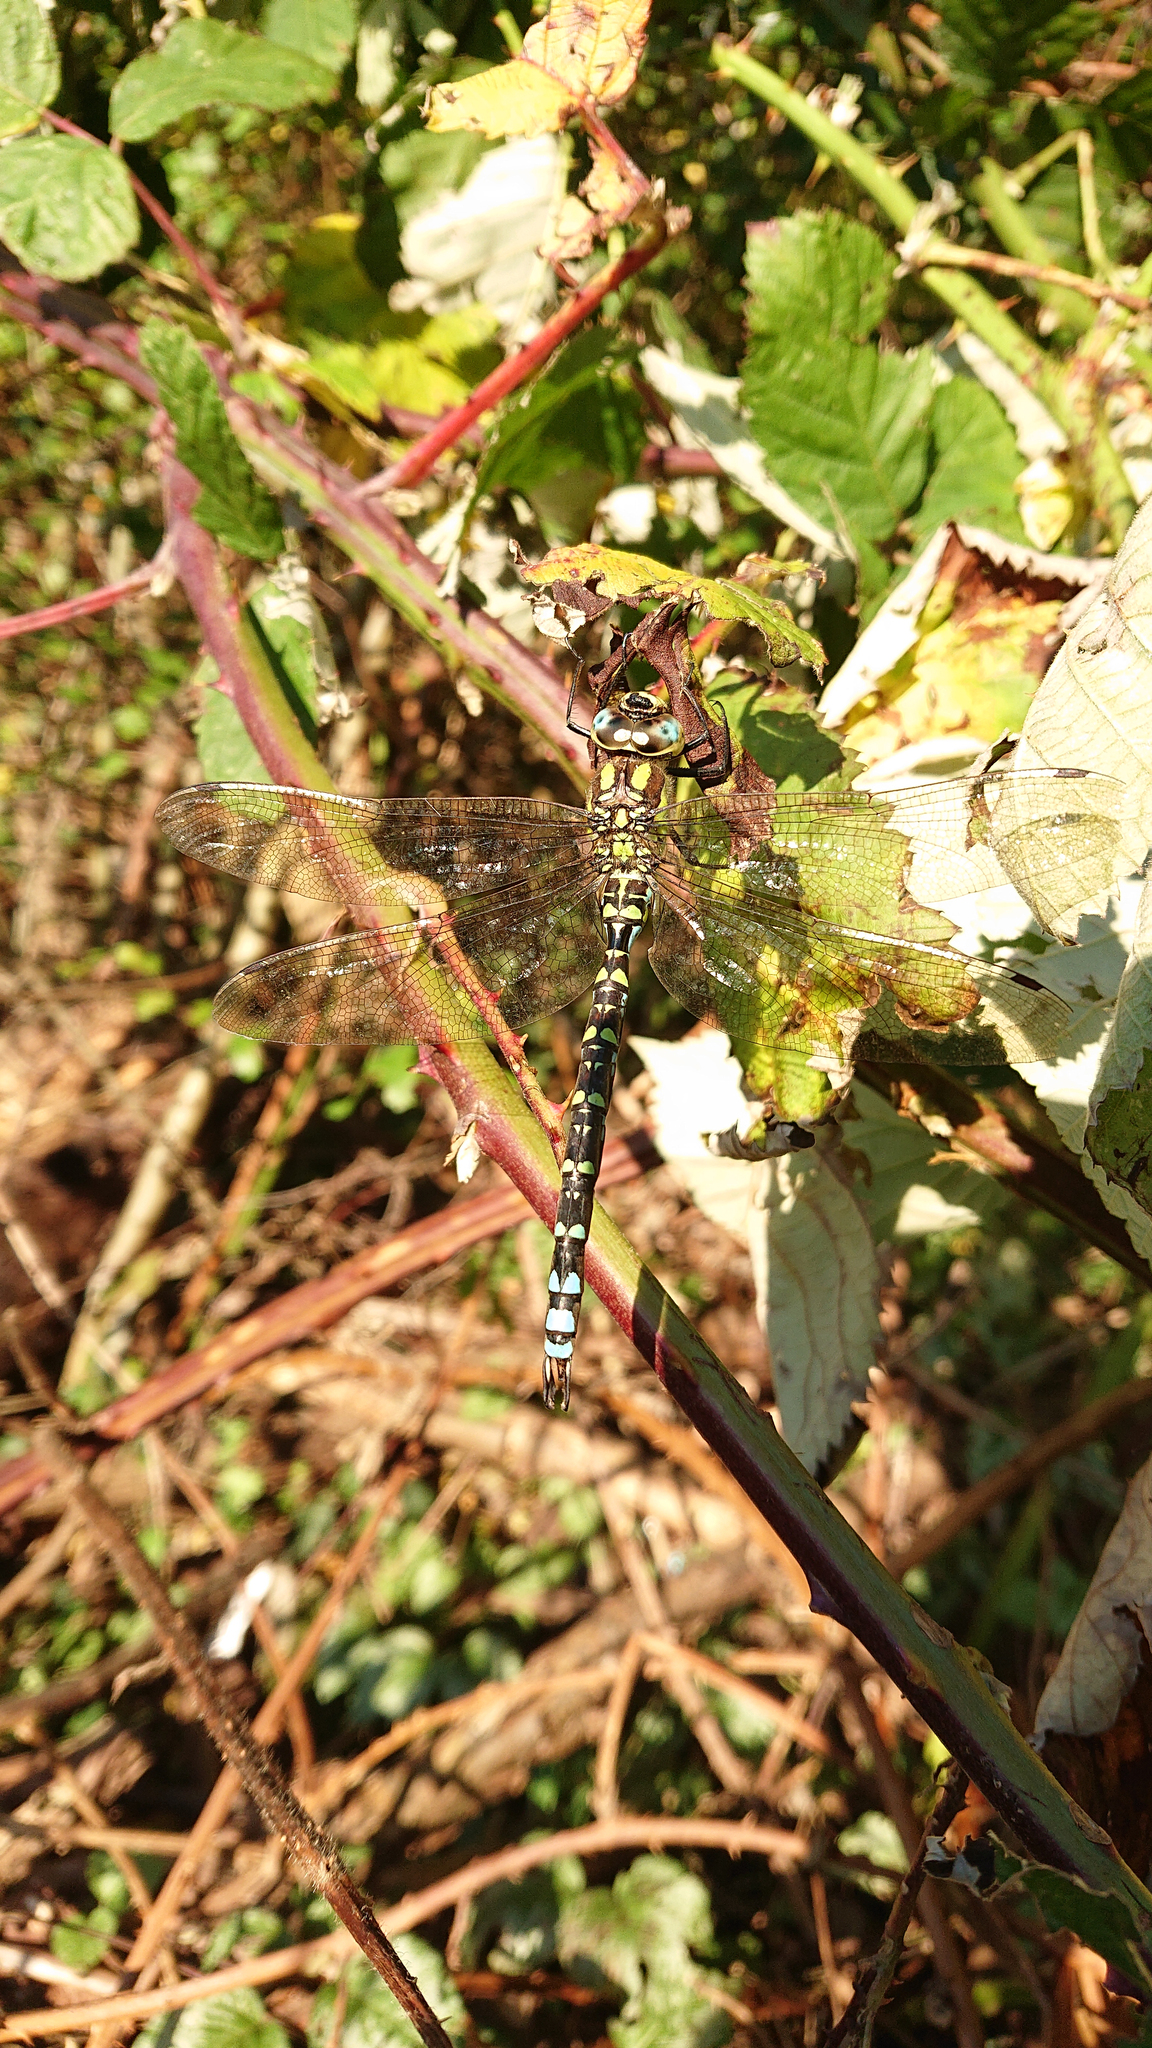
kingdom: Animalia
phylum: Arthropoda
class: Insecta
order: Odonata
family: Aeshnidae
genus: Aeshna
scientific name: Aeshna cyanea
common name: Southern hawker
